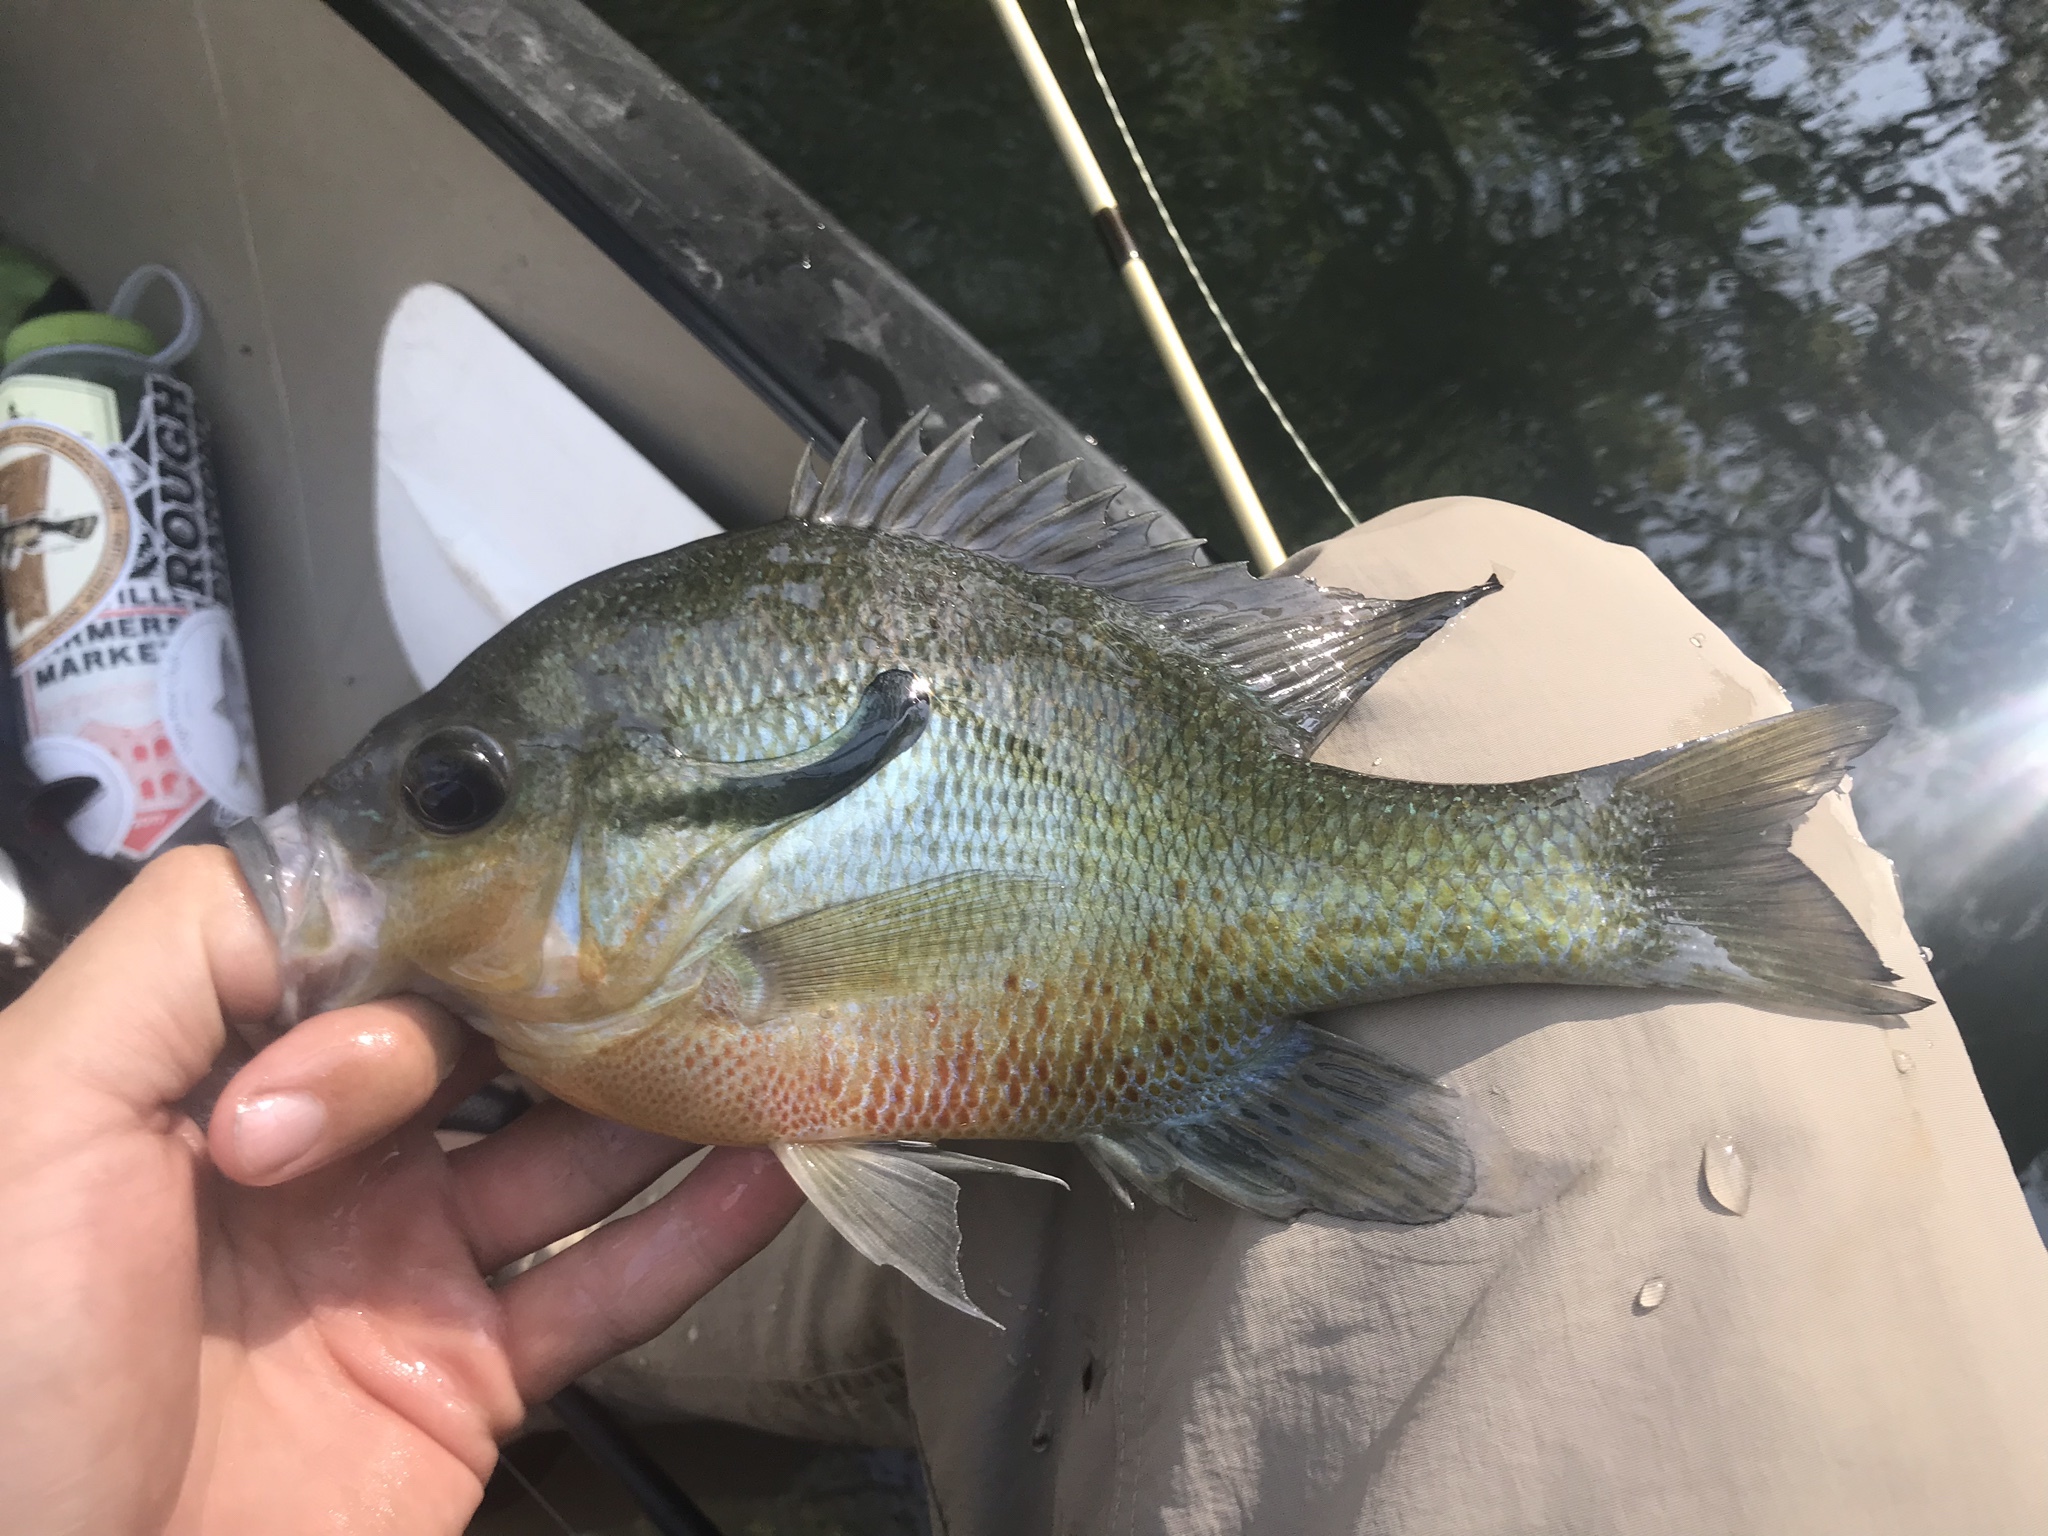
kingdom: Animalia
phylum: Chordata
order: Perciformes
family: Centrarchidae
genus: Lepomis
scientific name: Lepomis auritus
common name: Redbreast sunfish
